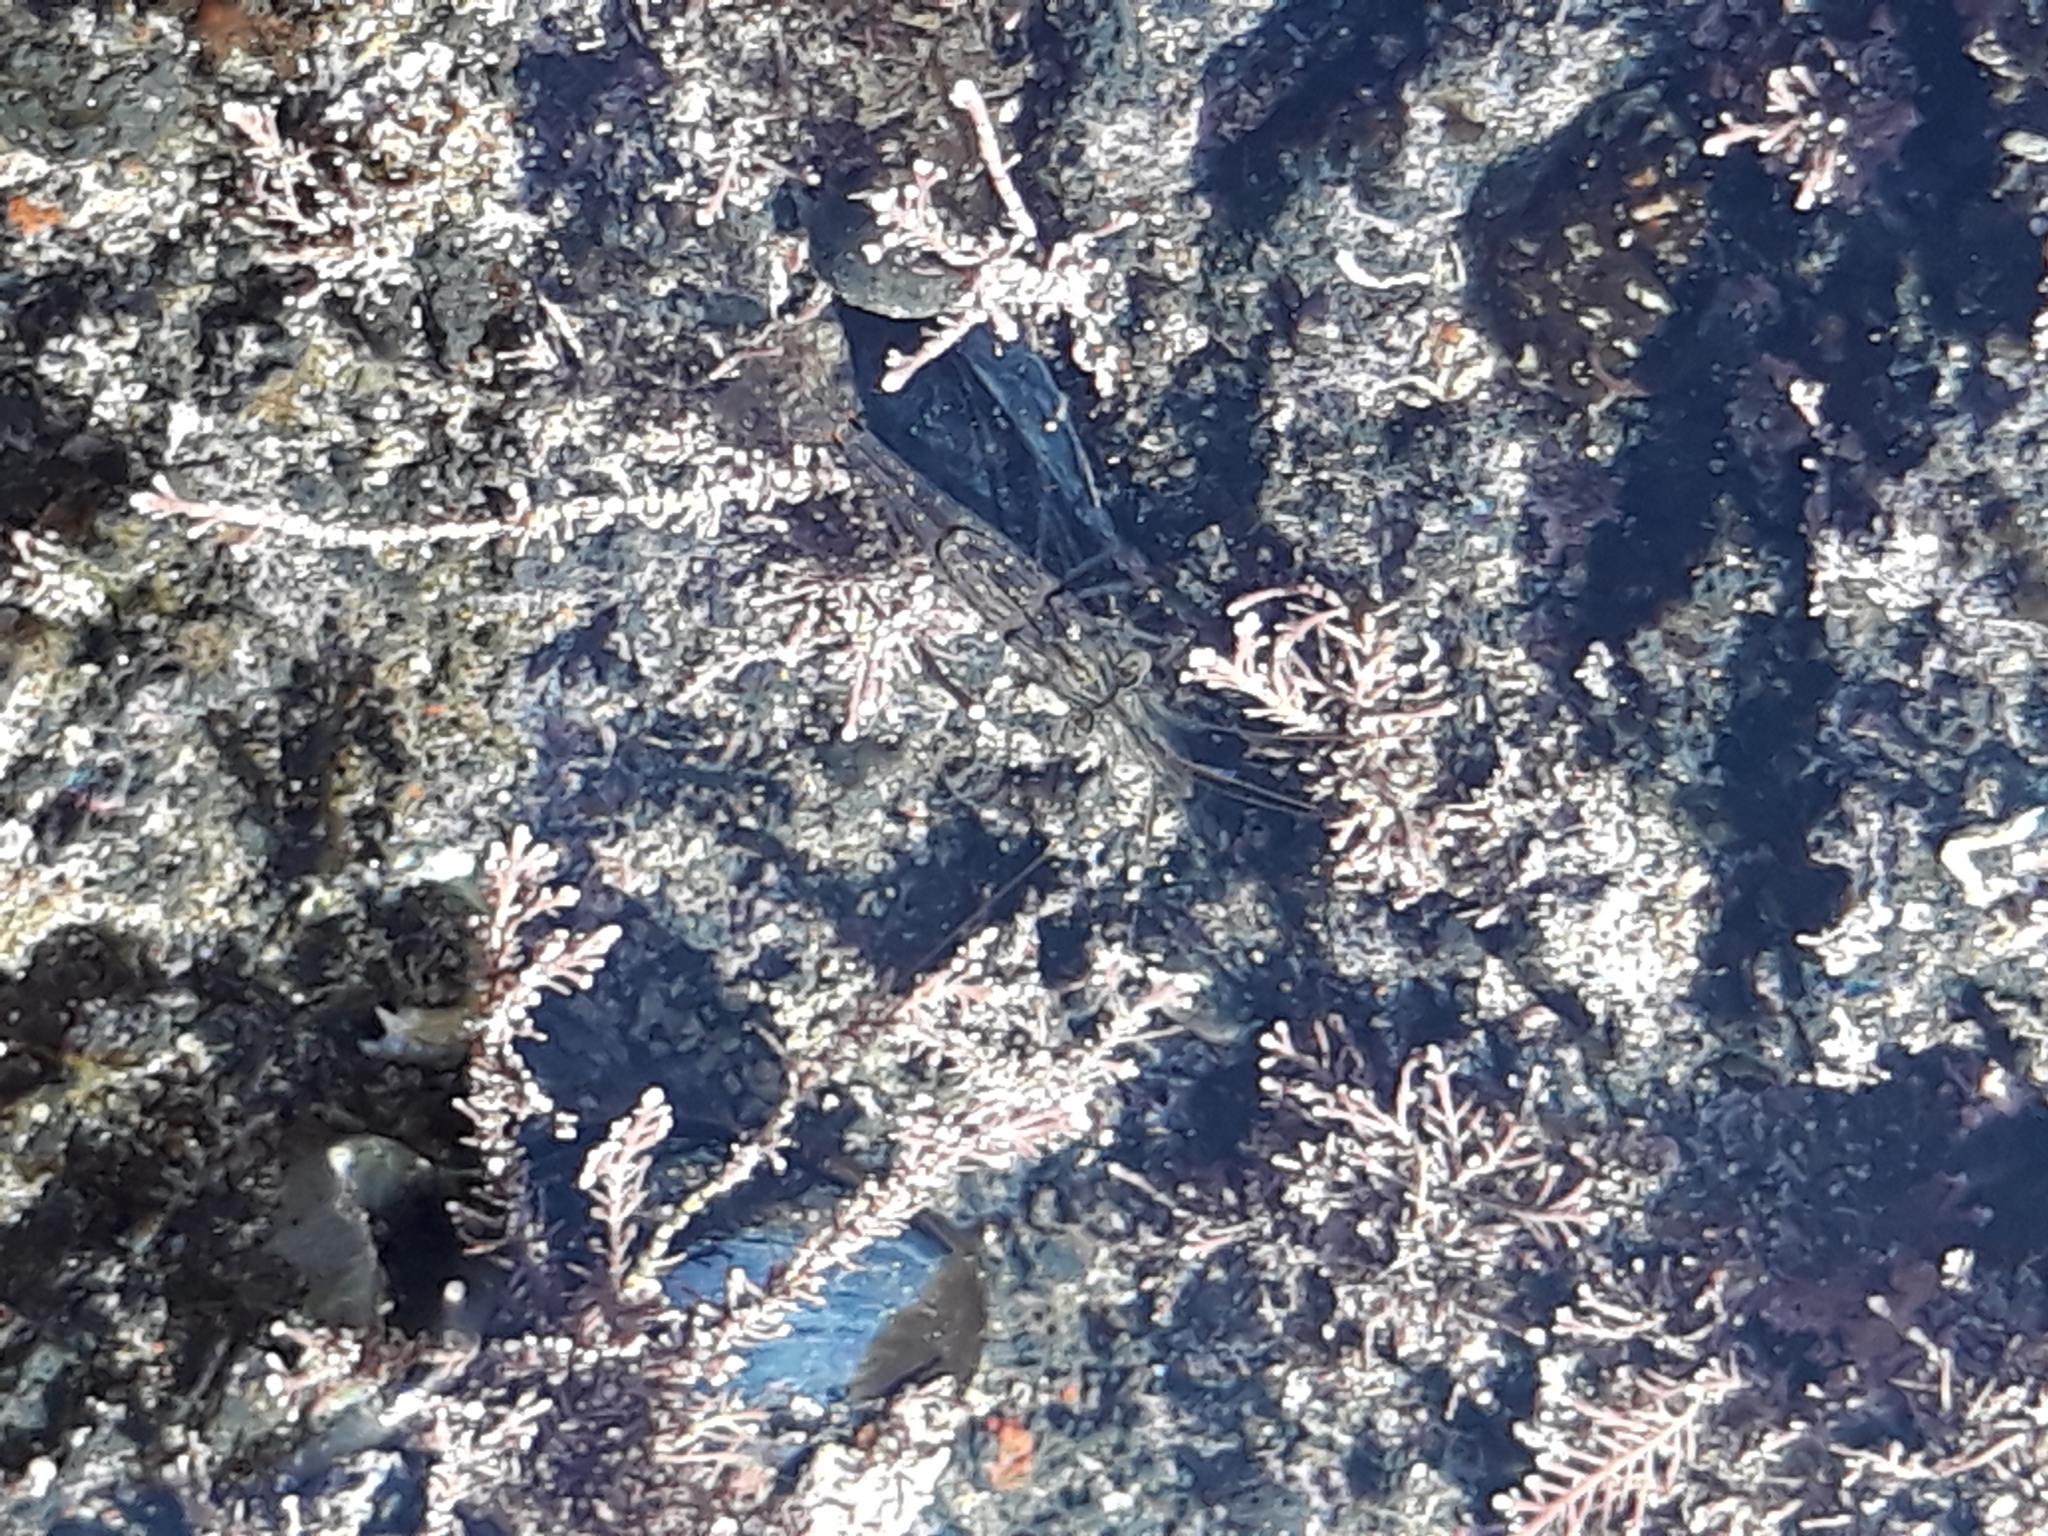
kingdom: Animalia
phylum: Arthropoda
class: Malacostraca
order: Decapoda
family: Palaemonidae
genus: Palaemon
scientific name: Palaemon affinis
